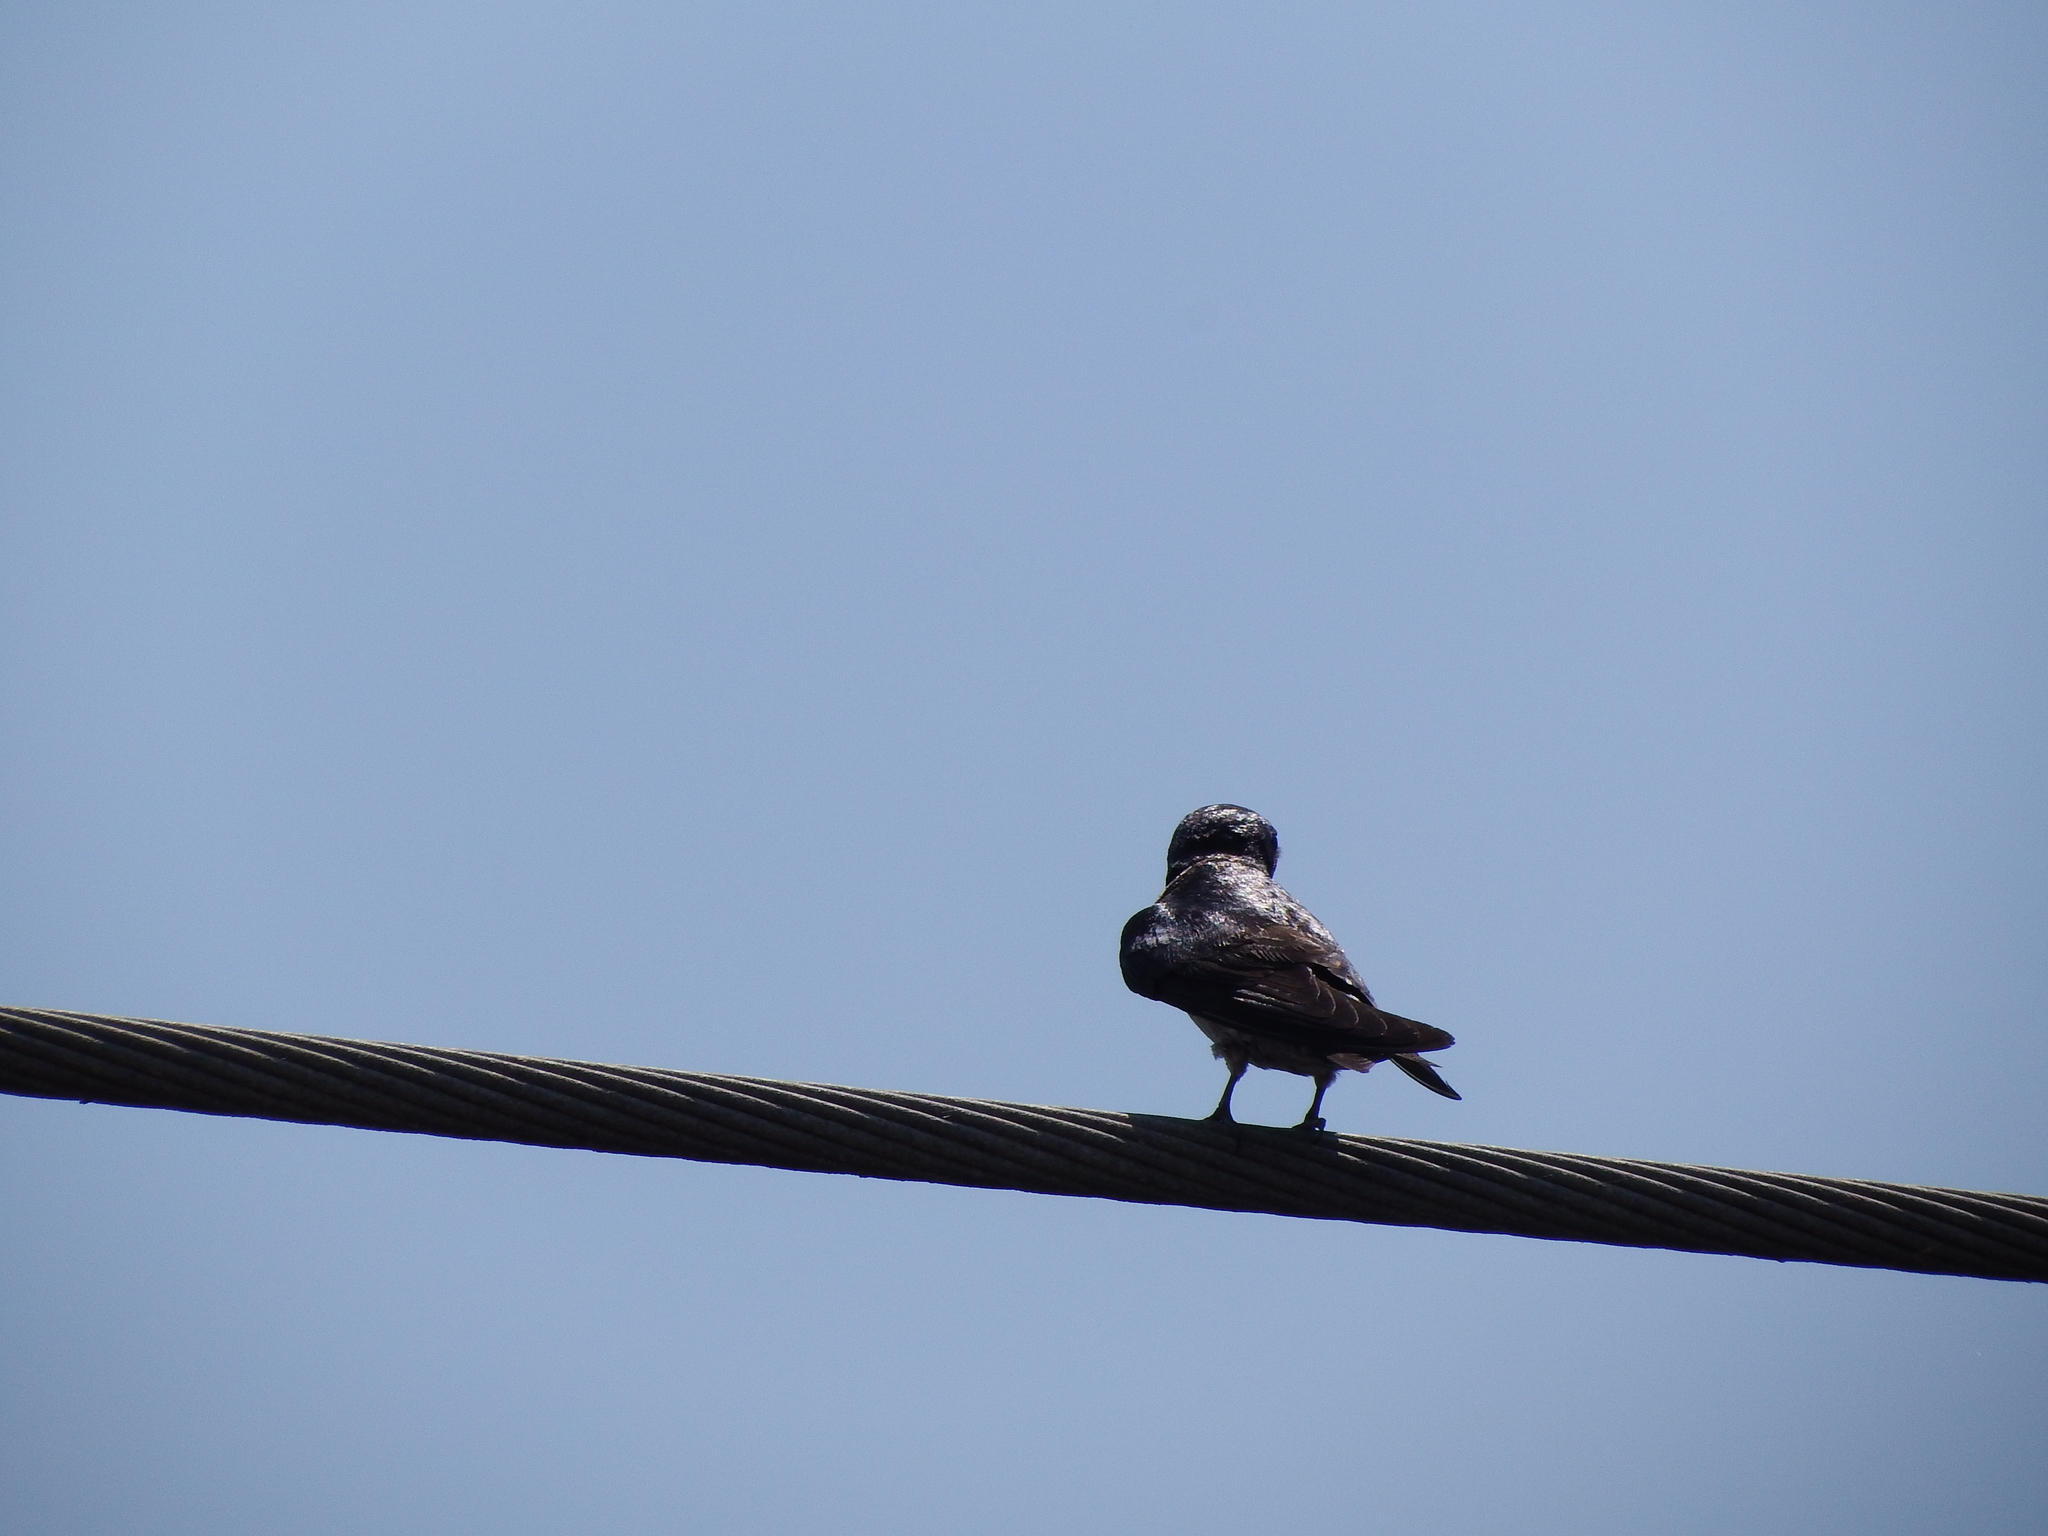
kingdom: Animalia
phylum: Chordata
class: Aves
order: Passeriformes
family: Hirundinidae
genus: Hirundo
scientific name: Hirundo rustica
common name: Barn swallow
